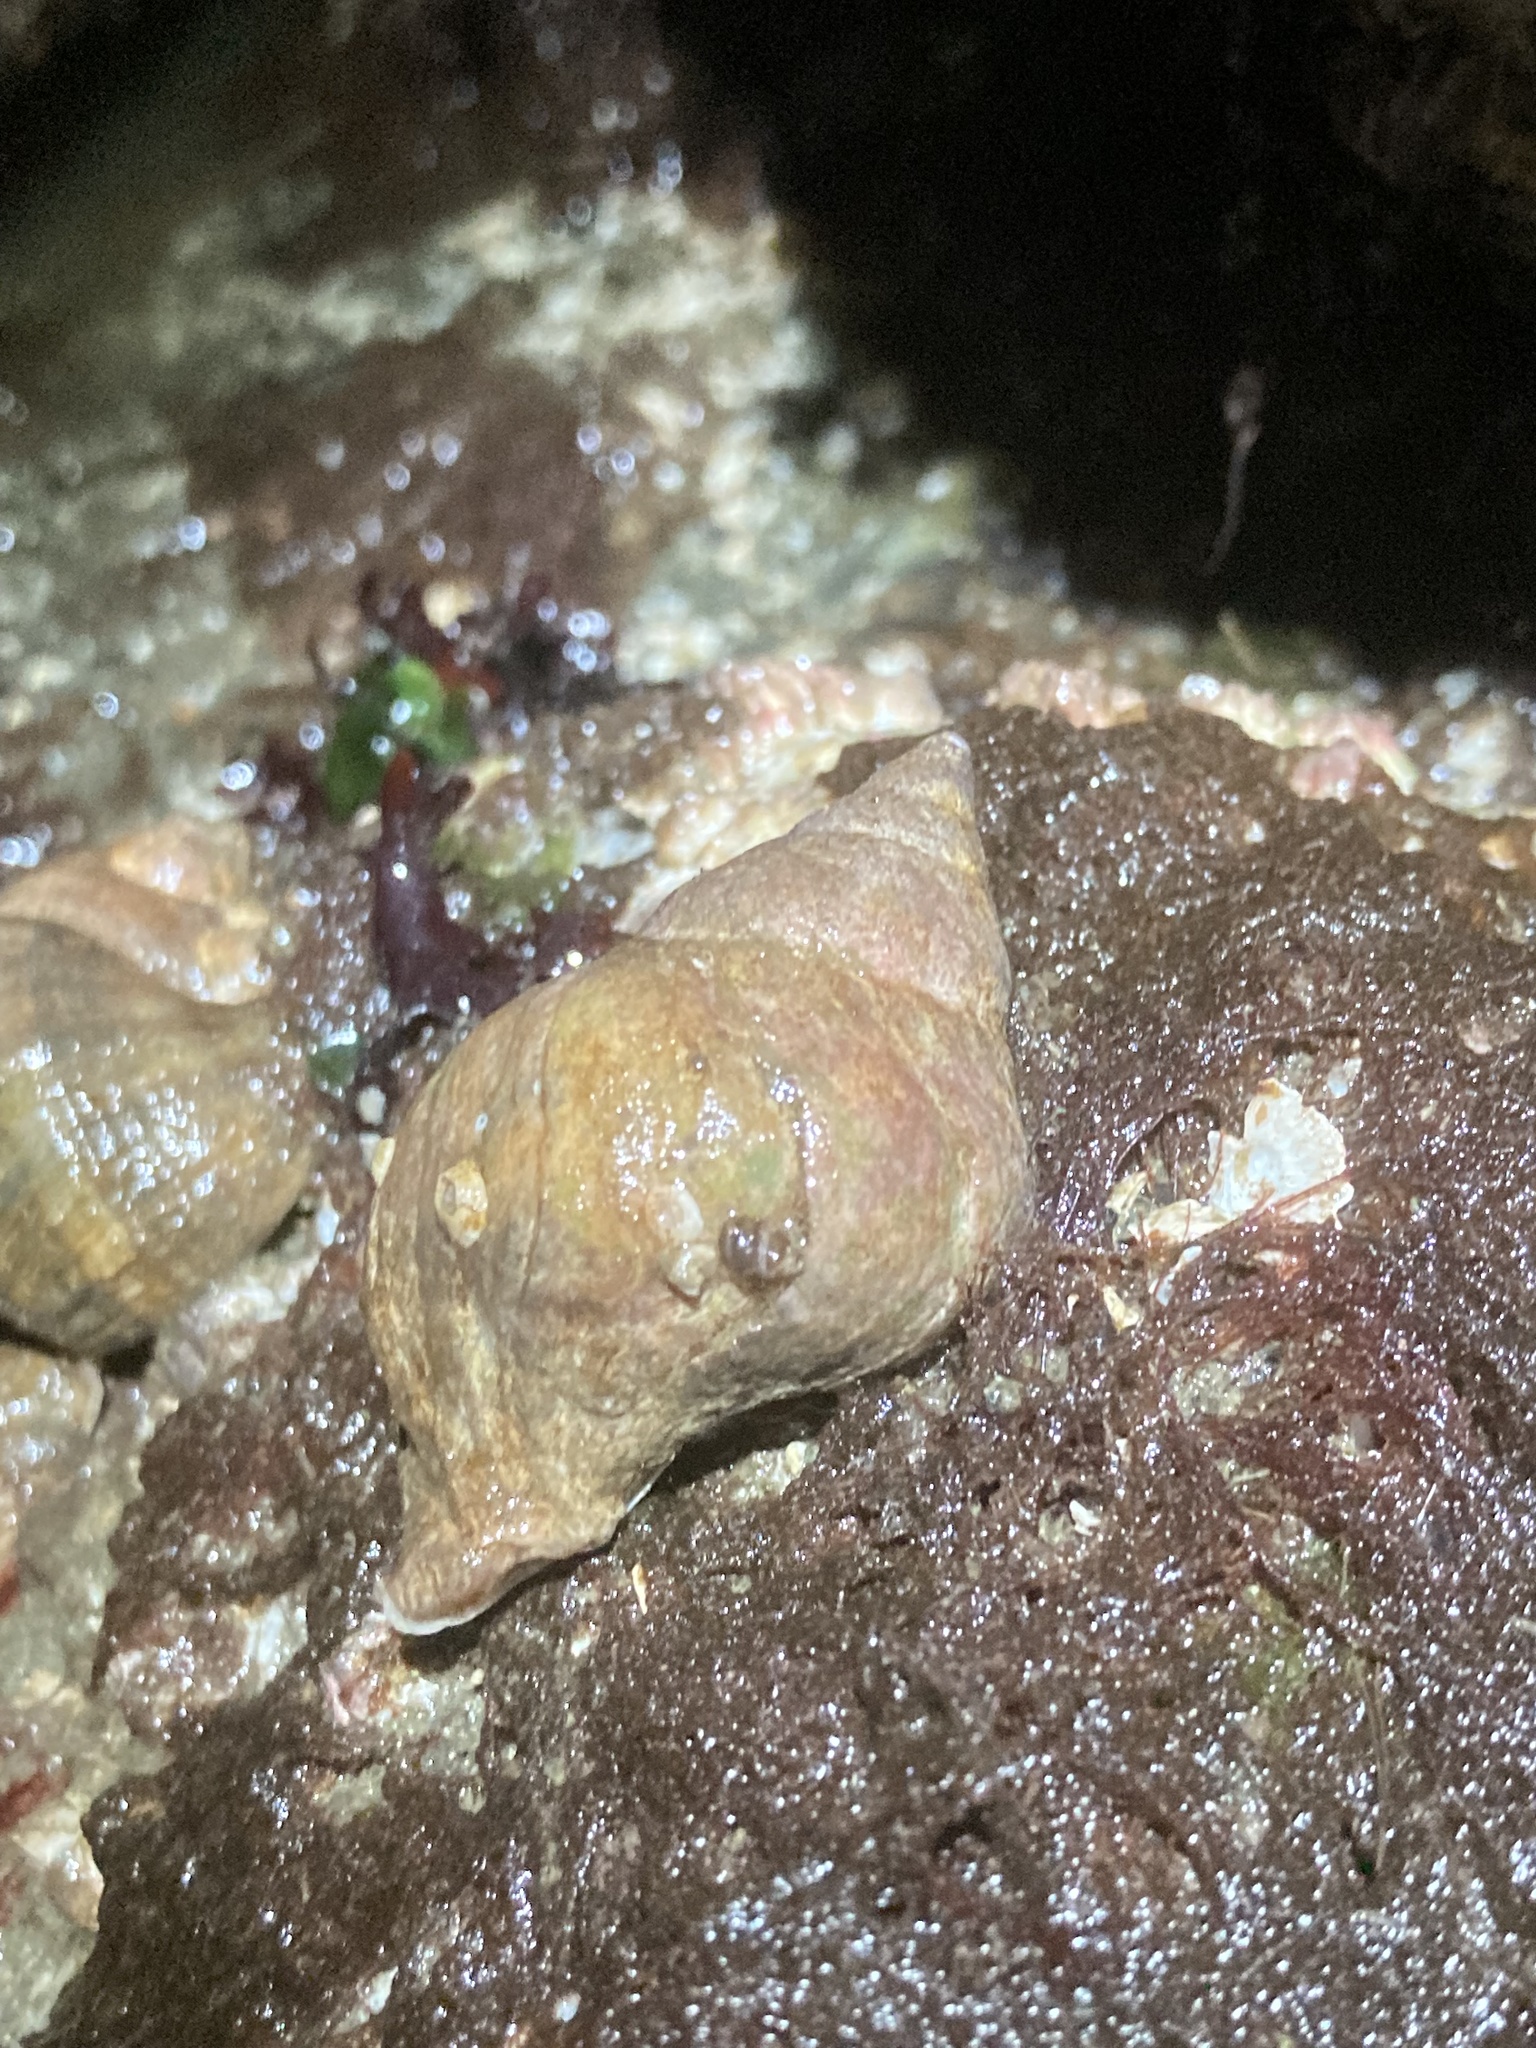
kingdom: Animalia
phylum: Mollusca
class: Gastropoda
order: Neogastropoda
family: Muricidae
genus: Nucella
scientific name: Nucella lamellosa
